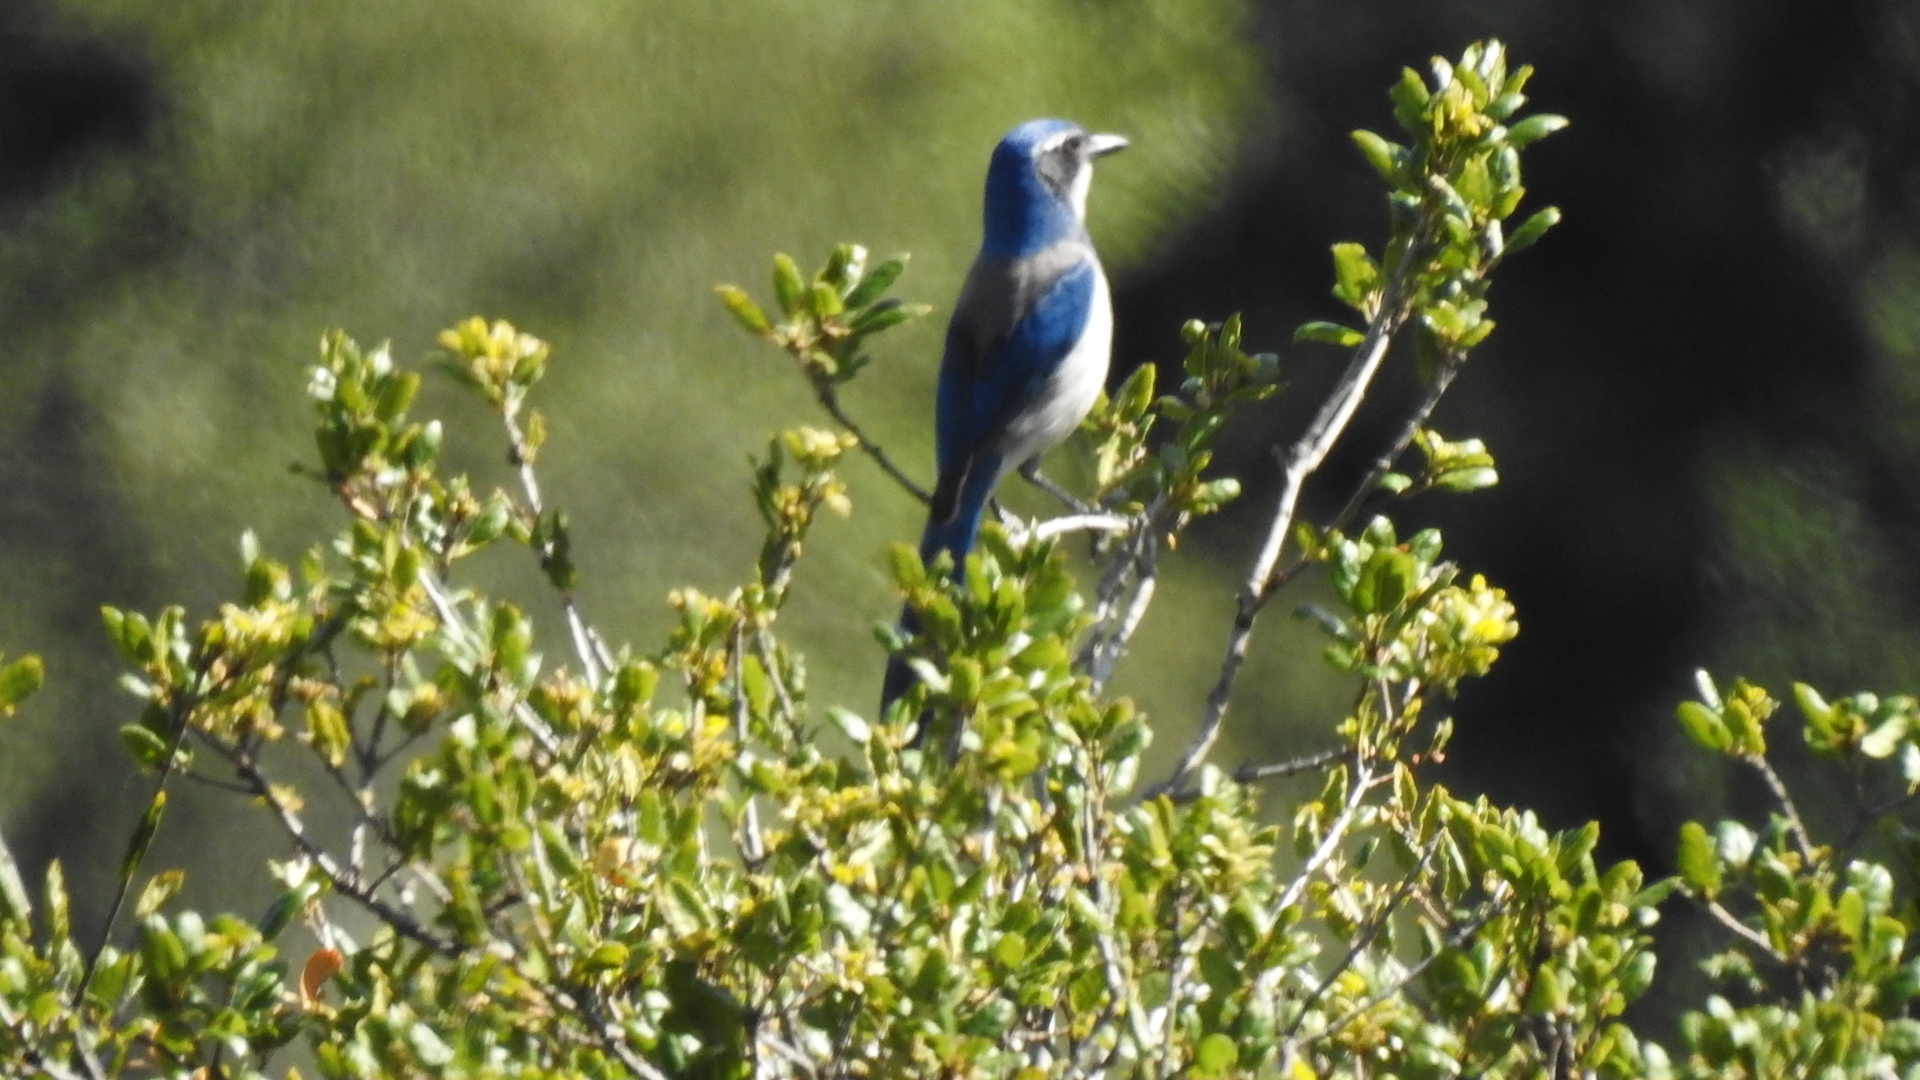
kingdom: Animalia
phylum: Chordata
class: Aves
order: Passeriformes
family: Corvidae
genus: Aphelocoma
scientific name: Aphelocoma californica
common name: California scrub-jay
